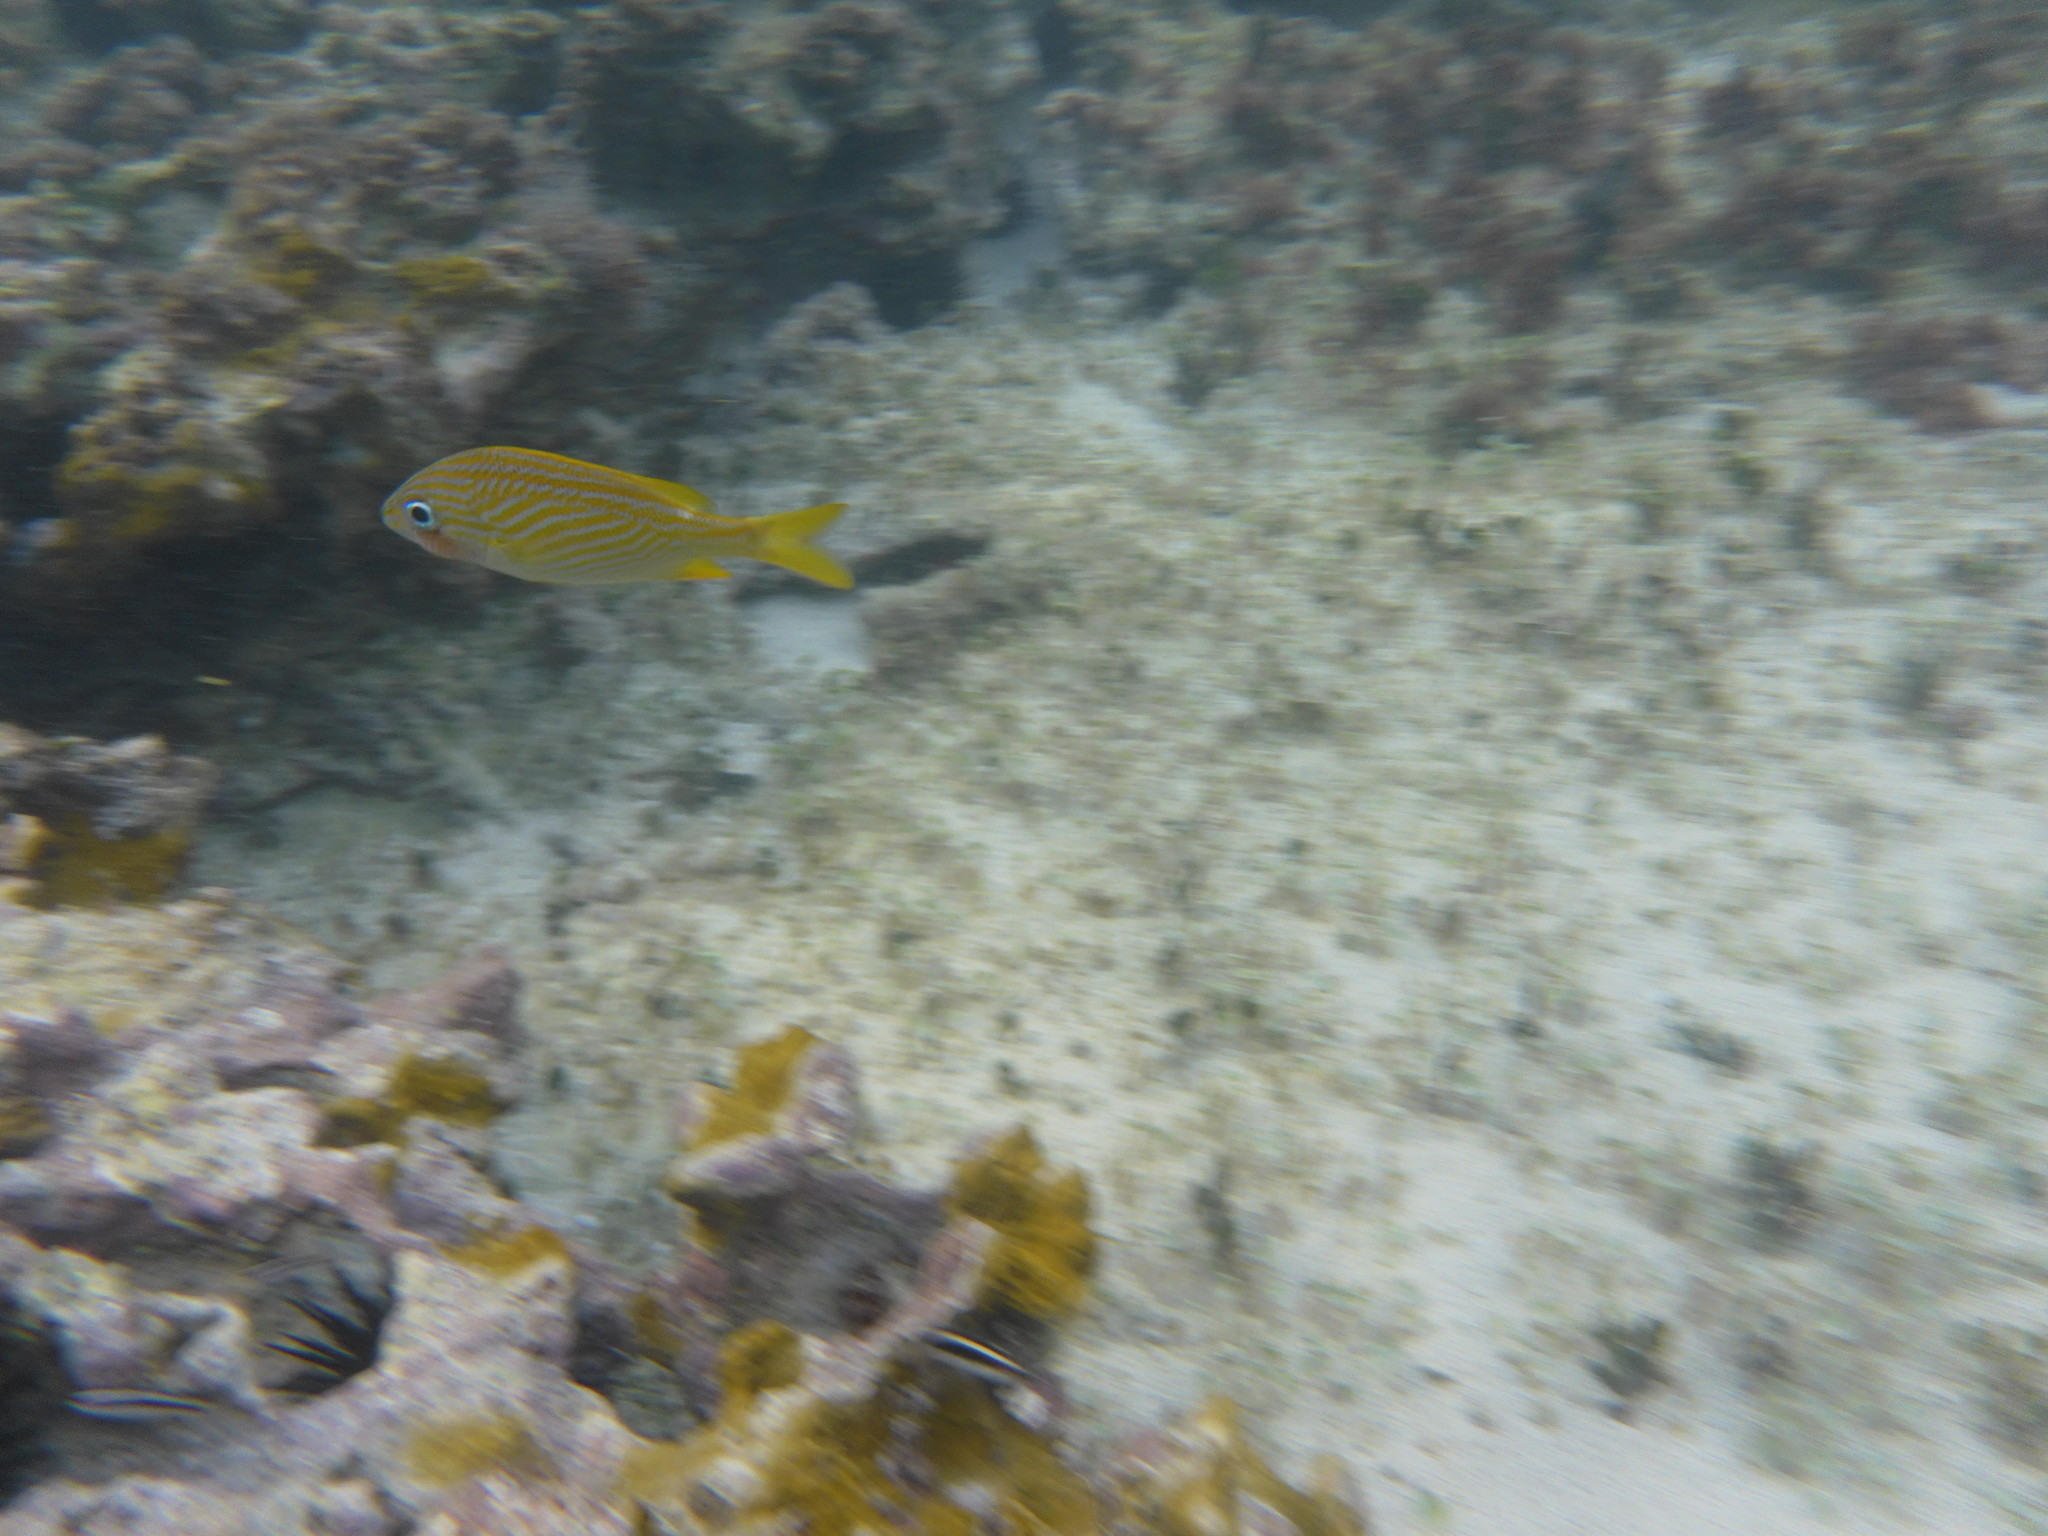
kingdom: Animalia
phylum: Chordata
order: Perciformes
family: Haemulidae
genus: Haemulon
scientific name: Haemulon flavolineatum
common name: French grunt
